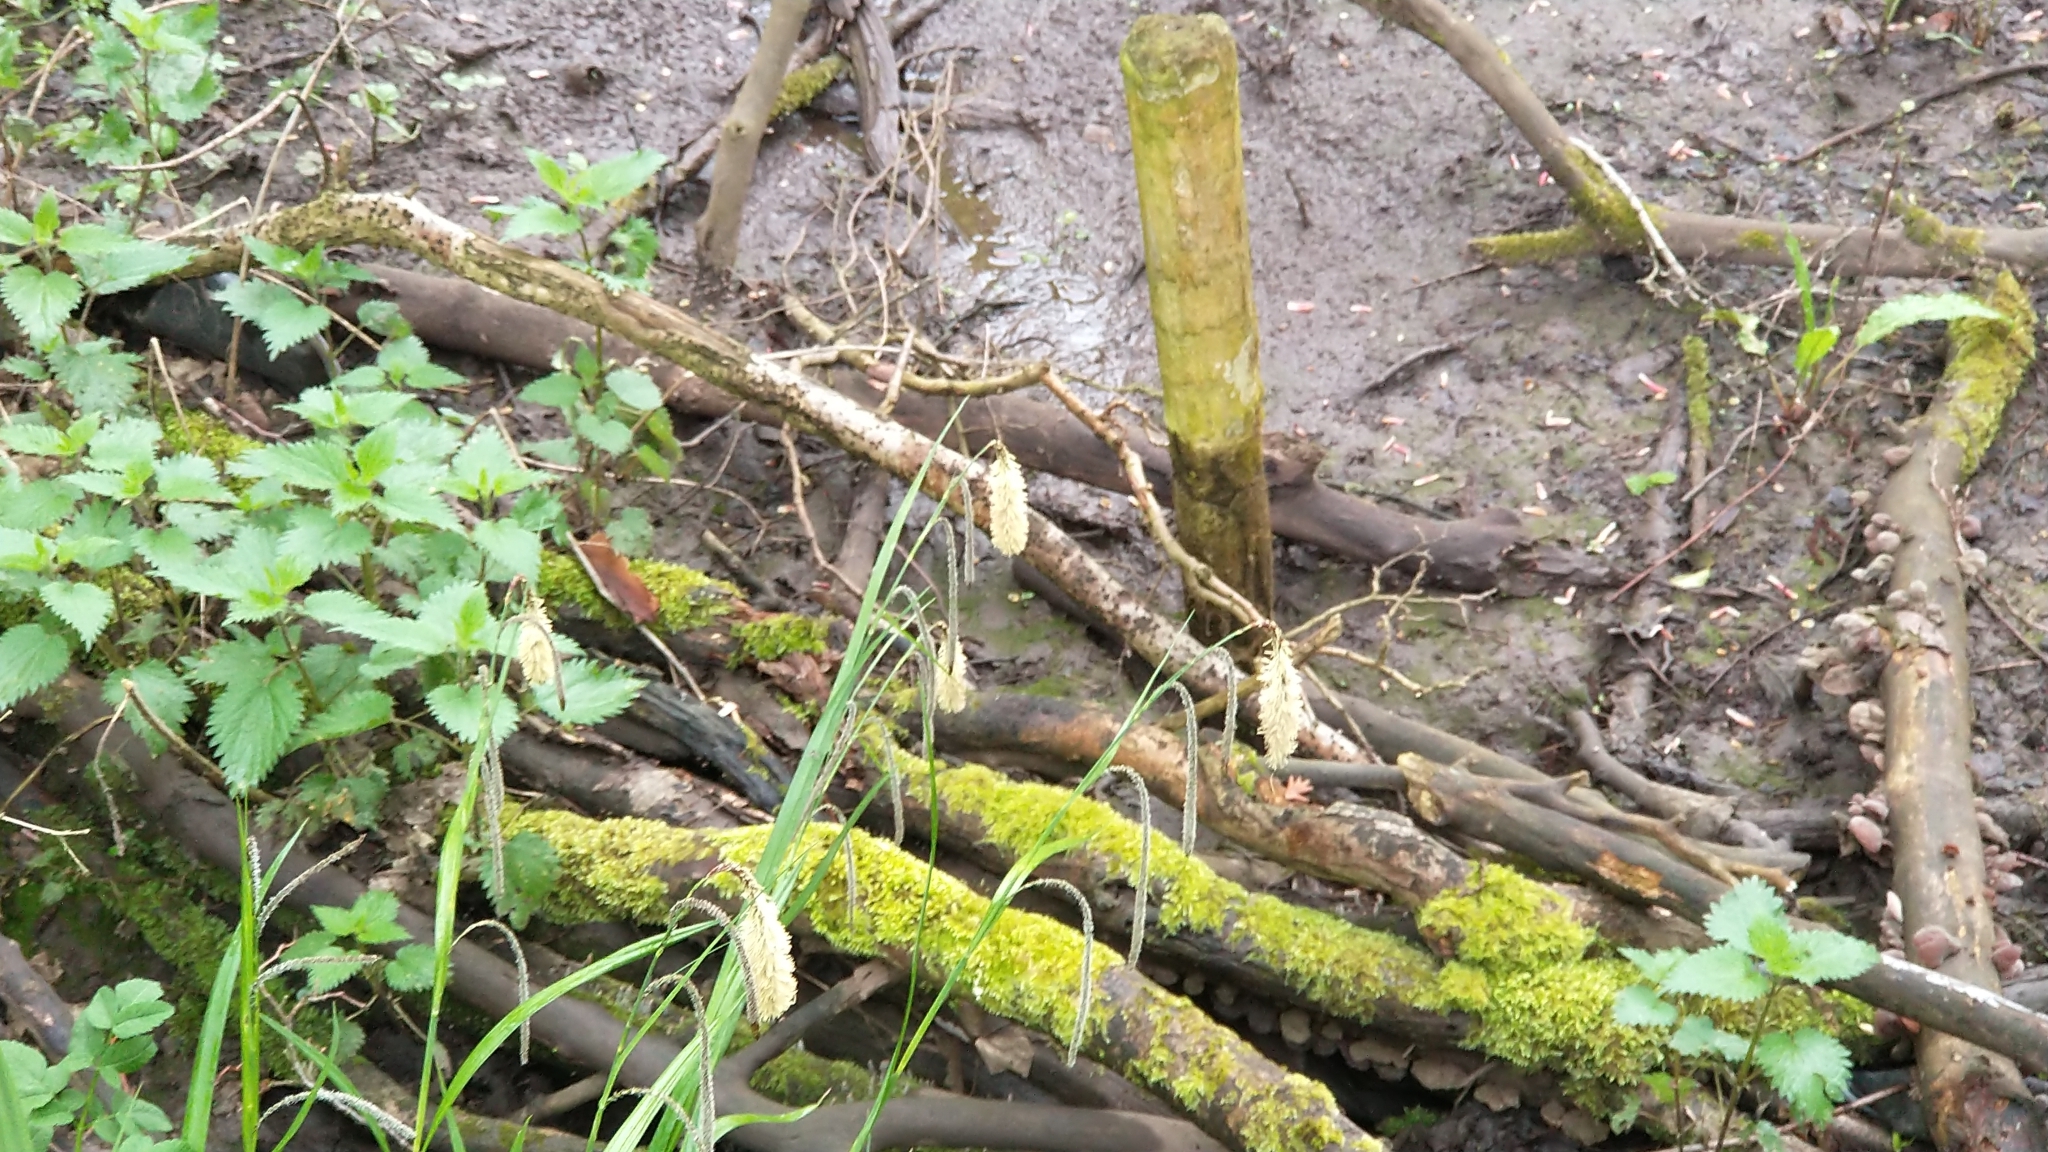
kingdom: Plantae
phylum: Tracheophyta
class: Liliopsida
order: Poales
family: Cyperaceae
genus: Carex
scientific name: Carex pendula
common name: Pendulous sedge
